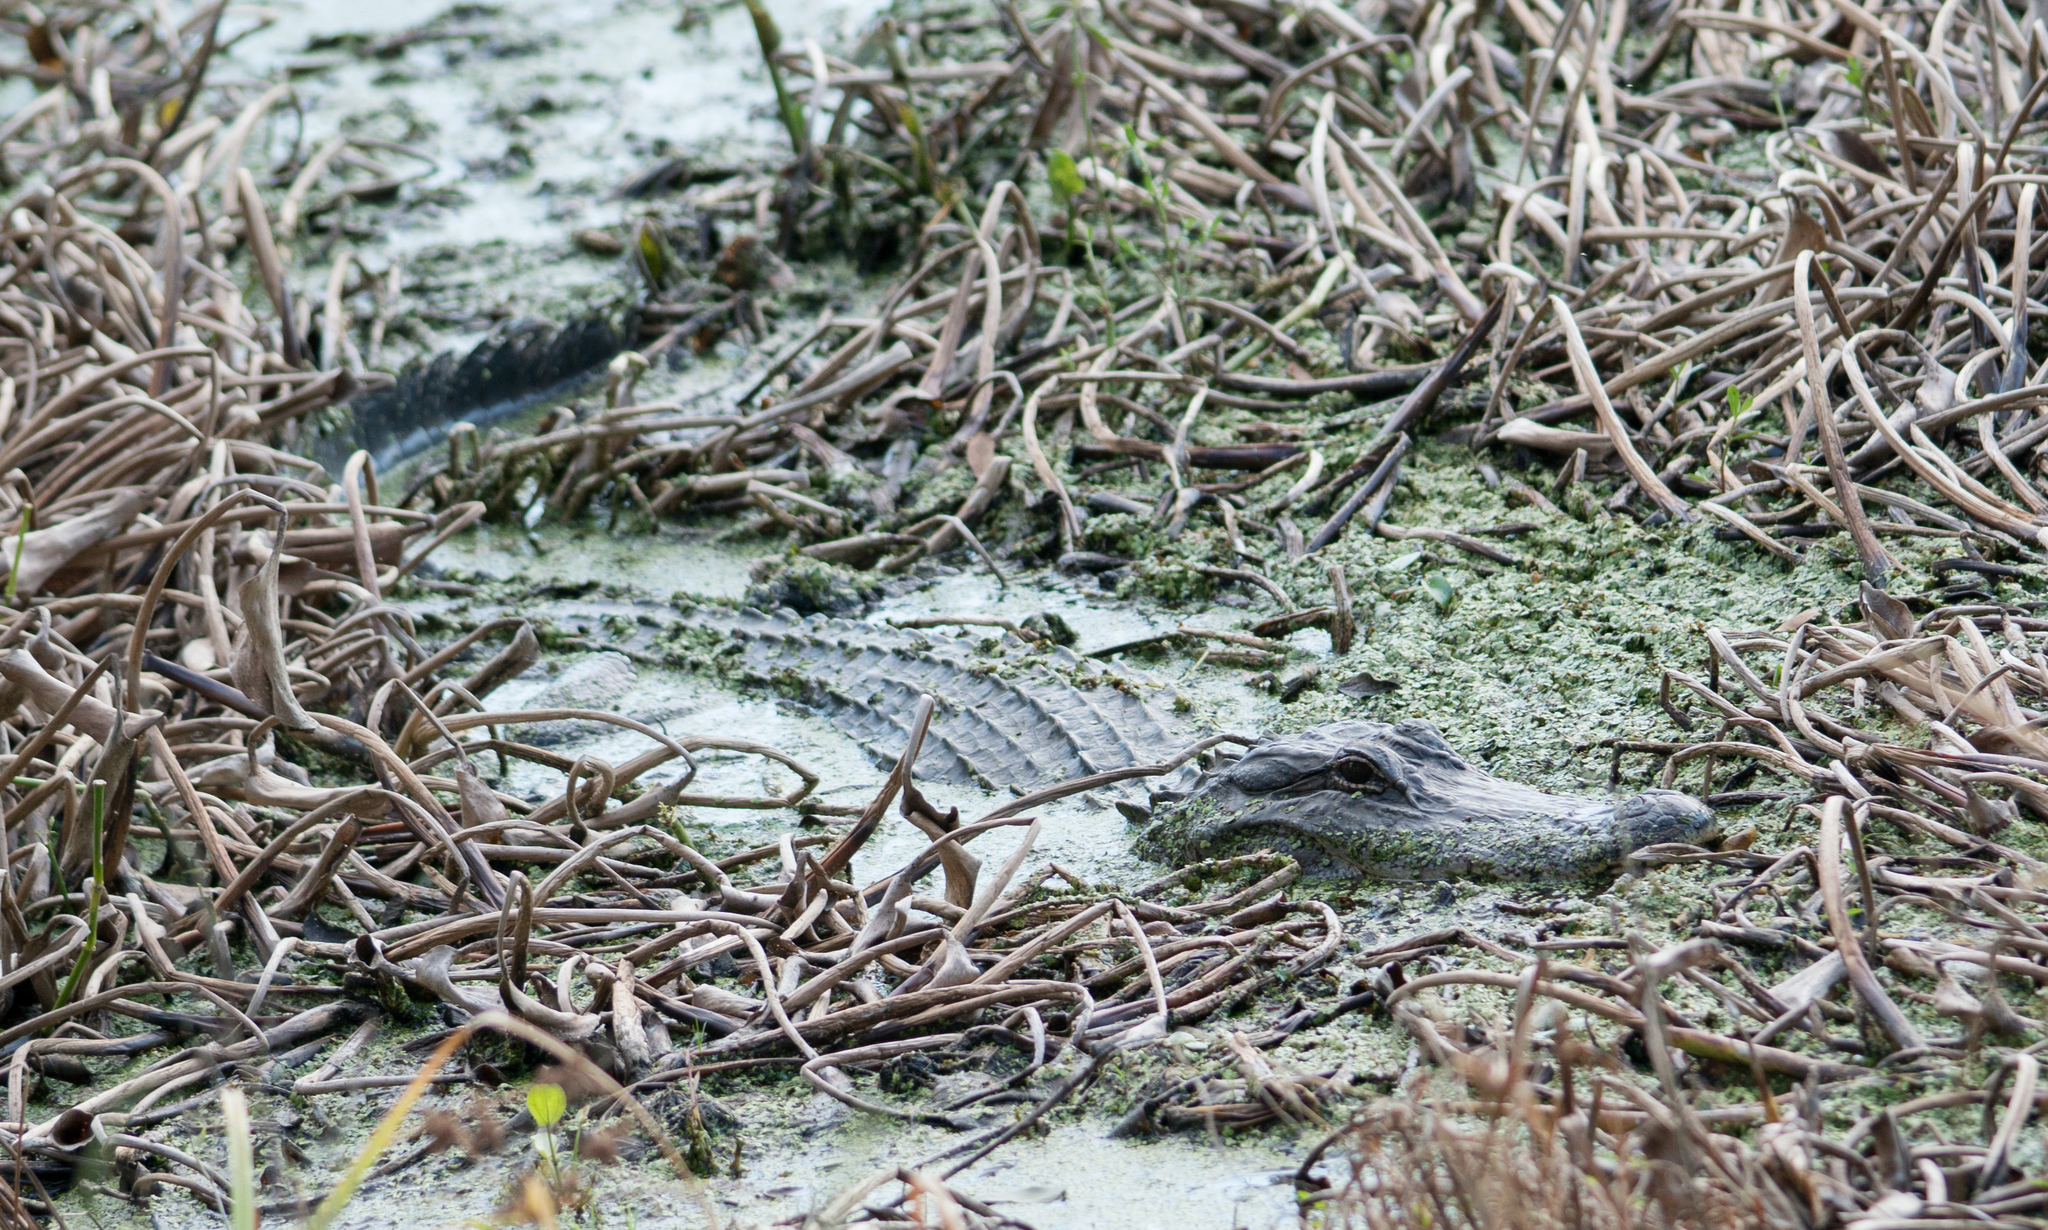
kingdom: Animalia
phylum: Chordata
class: Crocodylia
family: Alligatoridae
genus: Alligator
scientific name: Alligator mississippiensis
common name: American alligator
